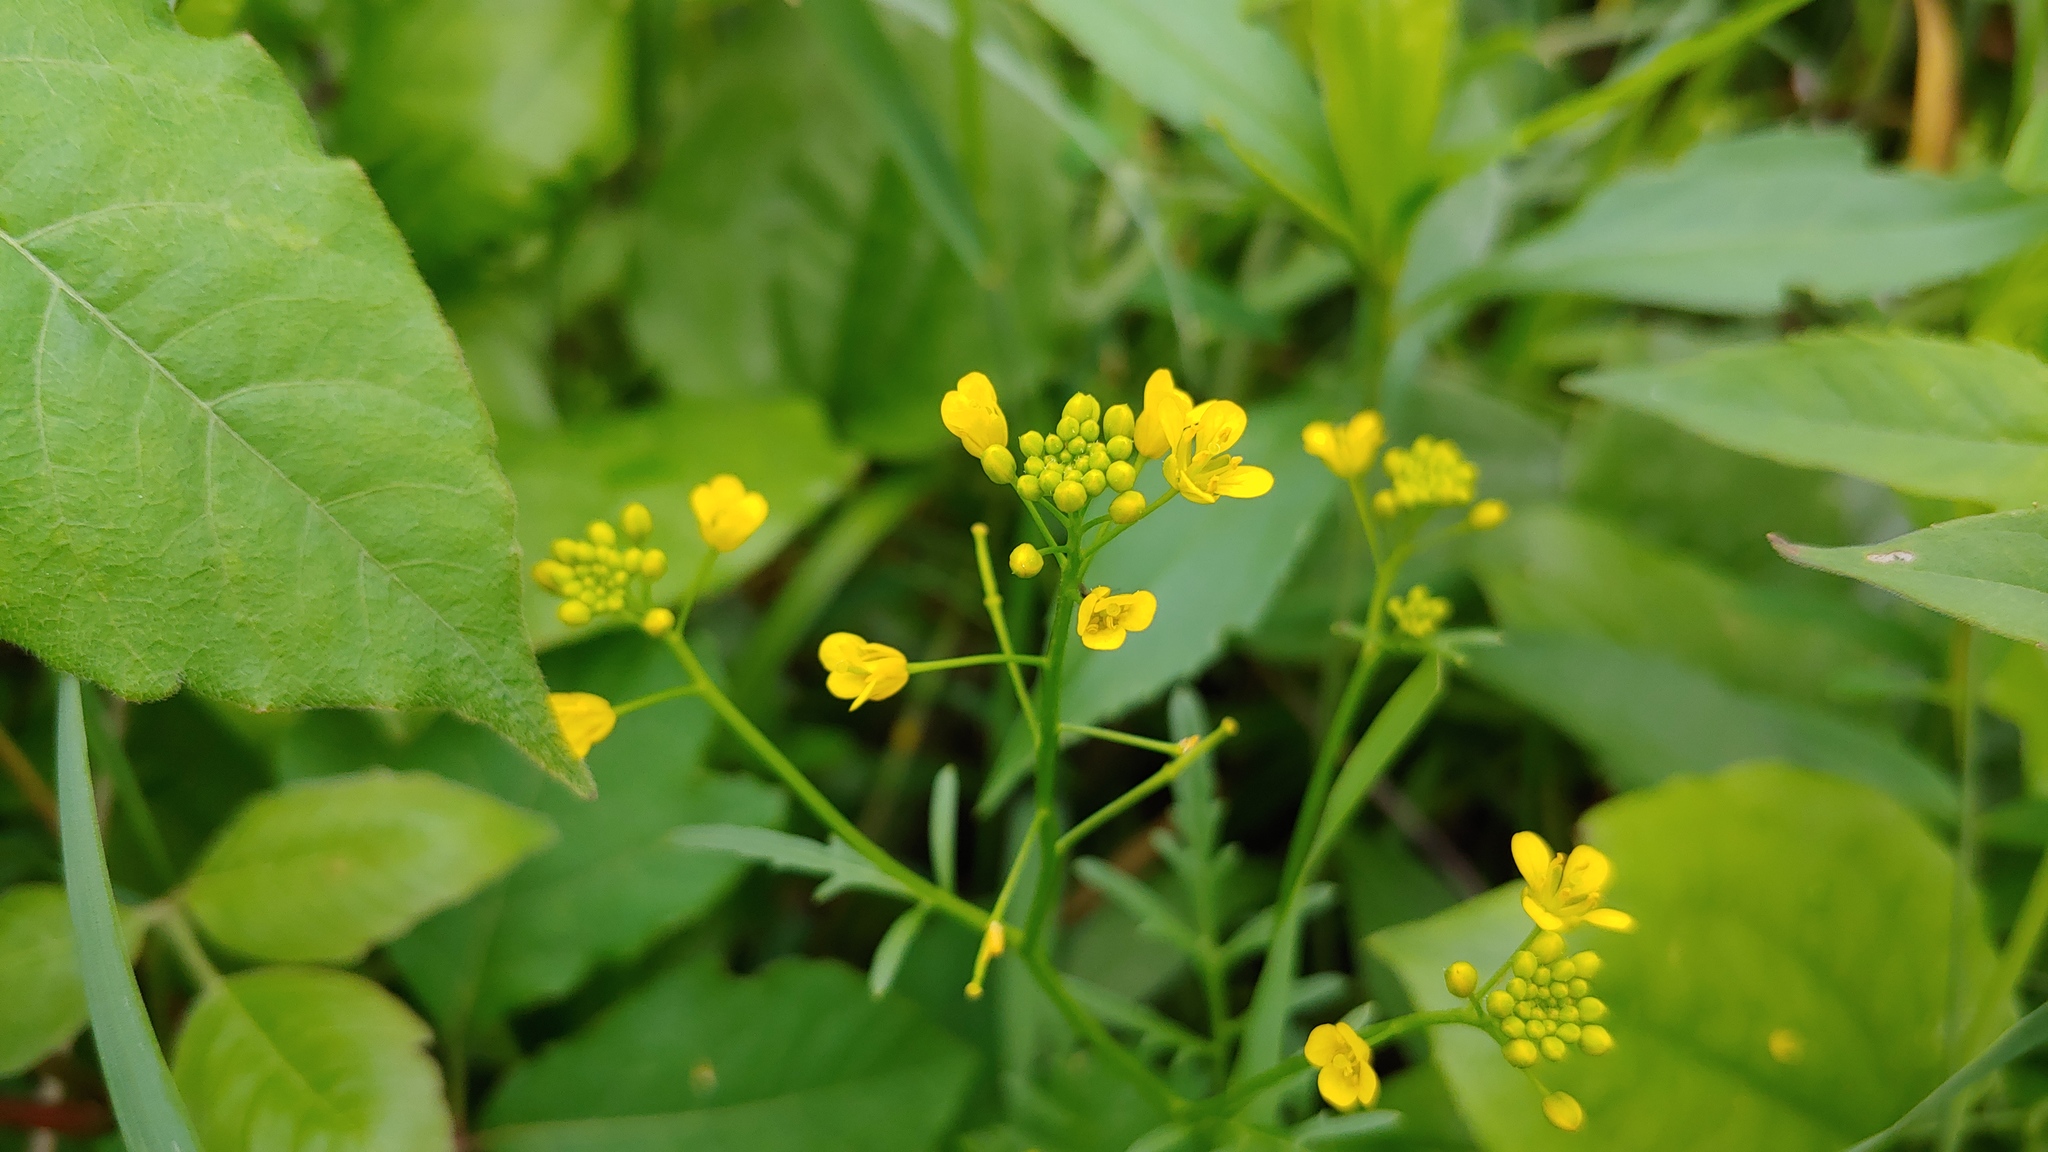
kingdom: Plantae
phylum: Tracheophyta
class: Magnoliopsida
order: Brassicales
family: Brassicaceae
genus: Rorippa
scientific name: Rorippa sylvestris
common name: Creeping yellowcress
